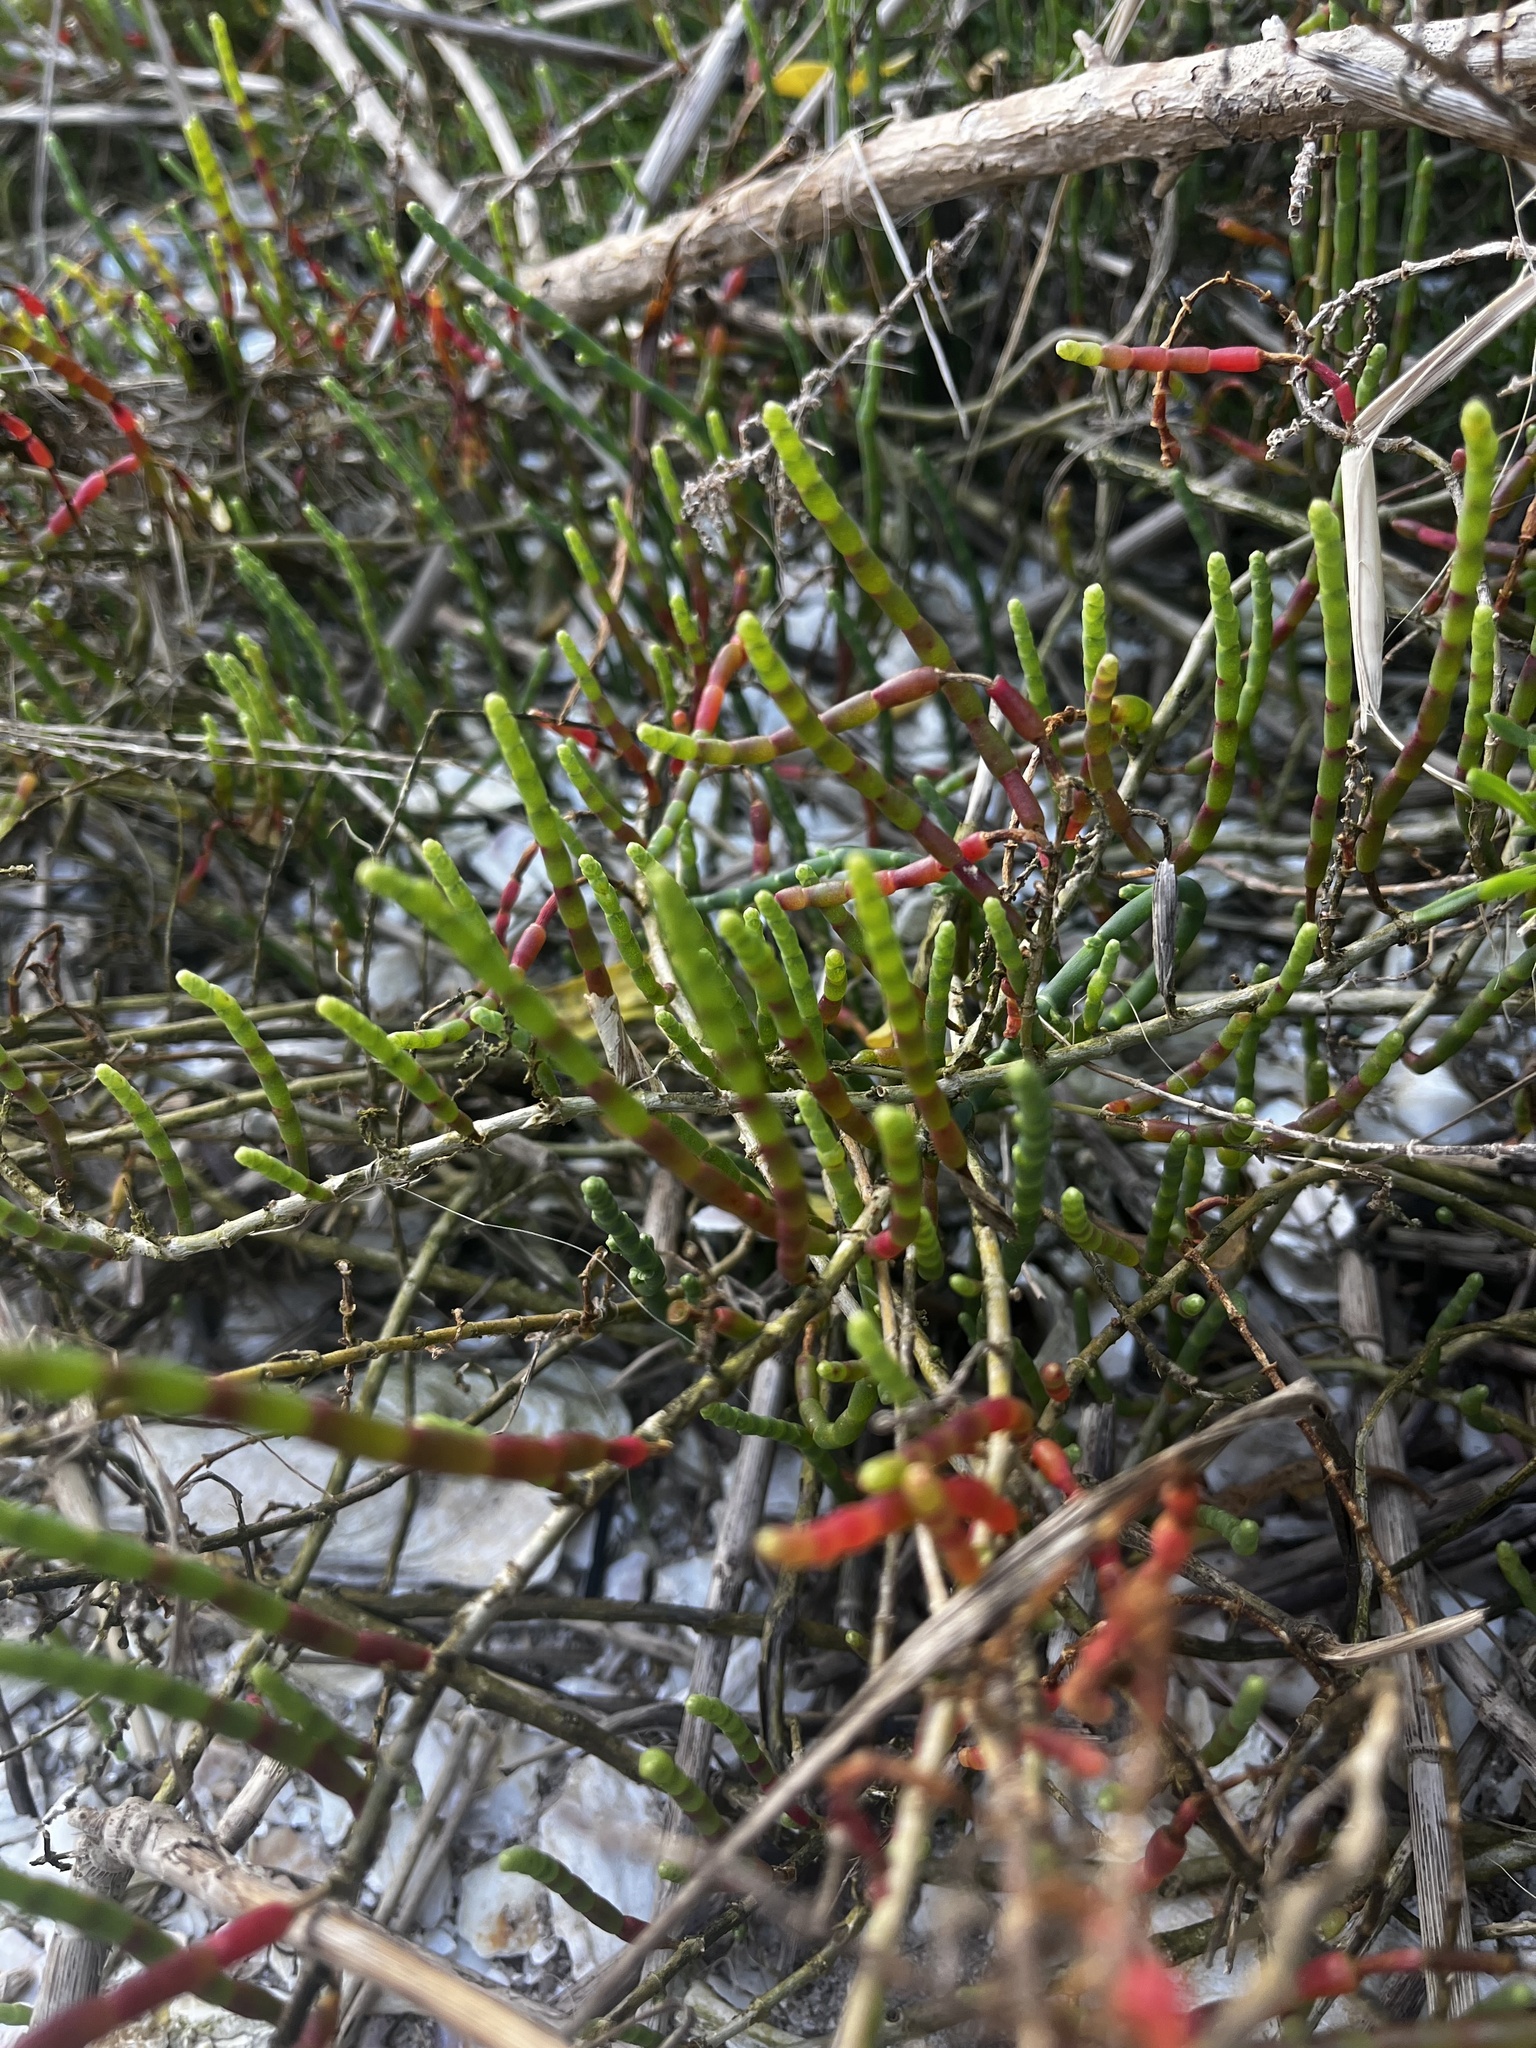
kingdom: Plantae
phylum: Tracheophyta
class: Magnoliopsida
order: Caryophyllales
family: Amaranthaceae
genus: Salicornia
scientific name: Salicornia ambigua
